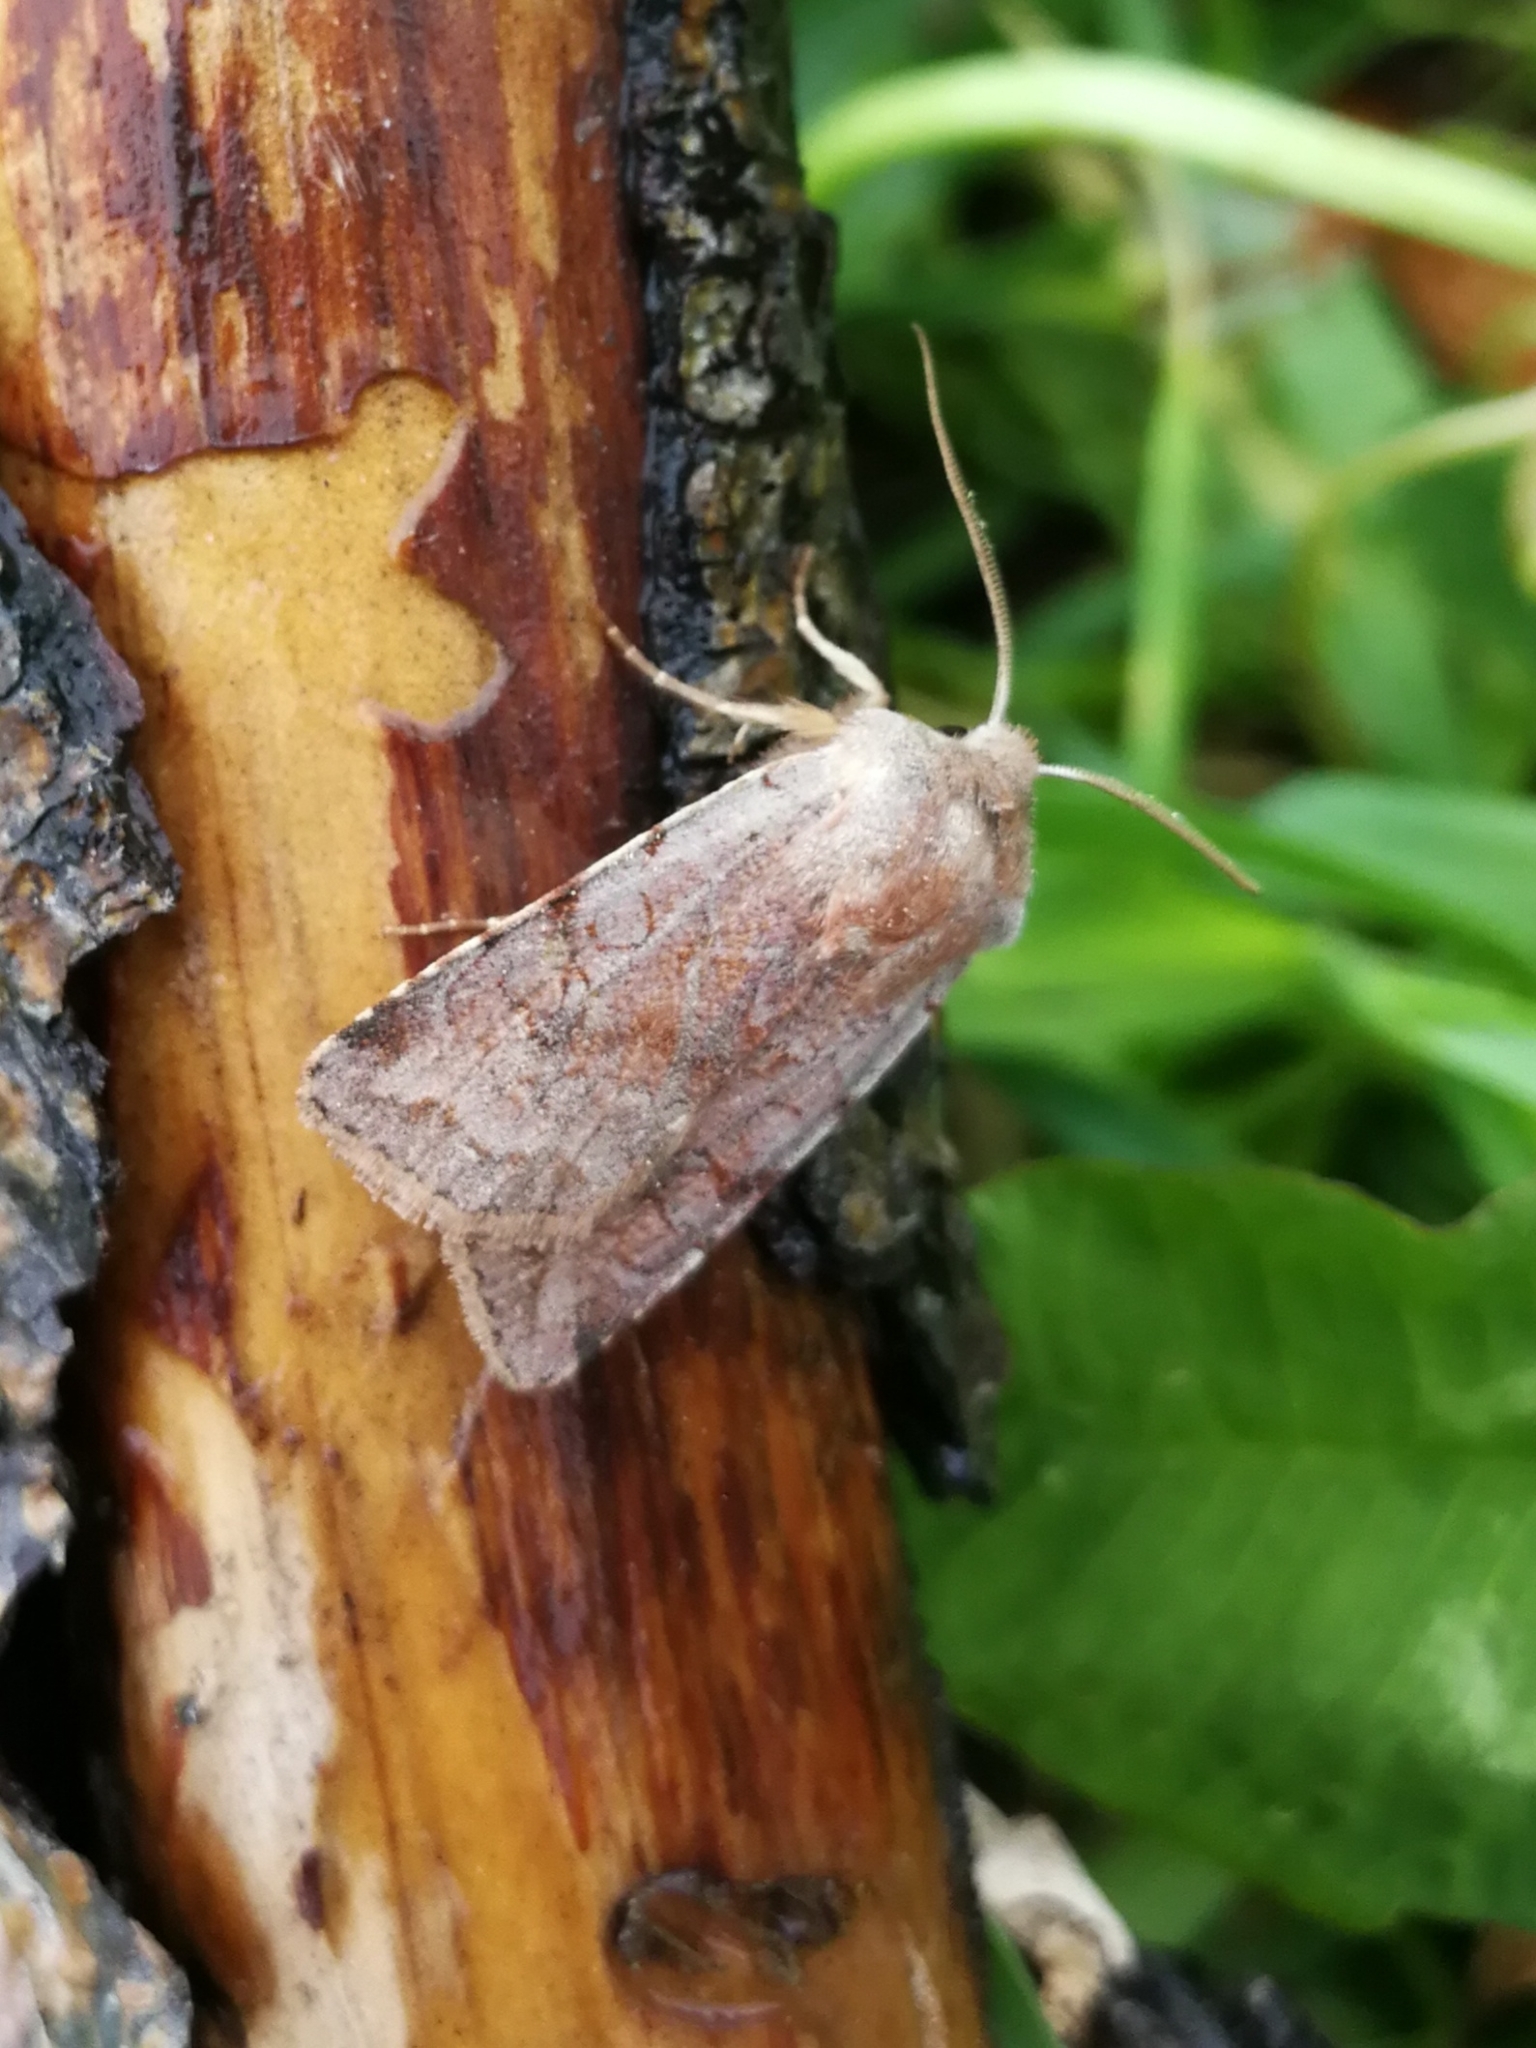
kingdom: Animalia
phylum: Arthropoda
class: Insecta
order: Lepidoptera
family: Noctuidae
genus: Cerastis
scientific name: Cerastis rubricosa
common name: Red chestnut
